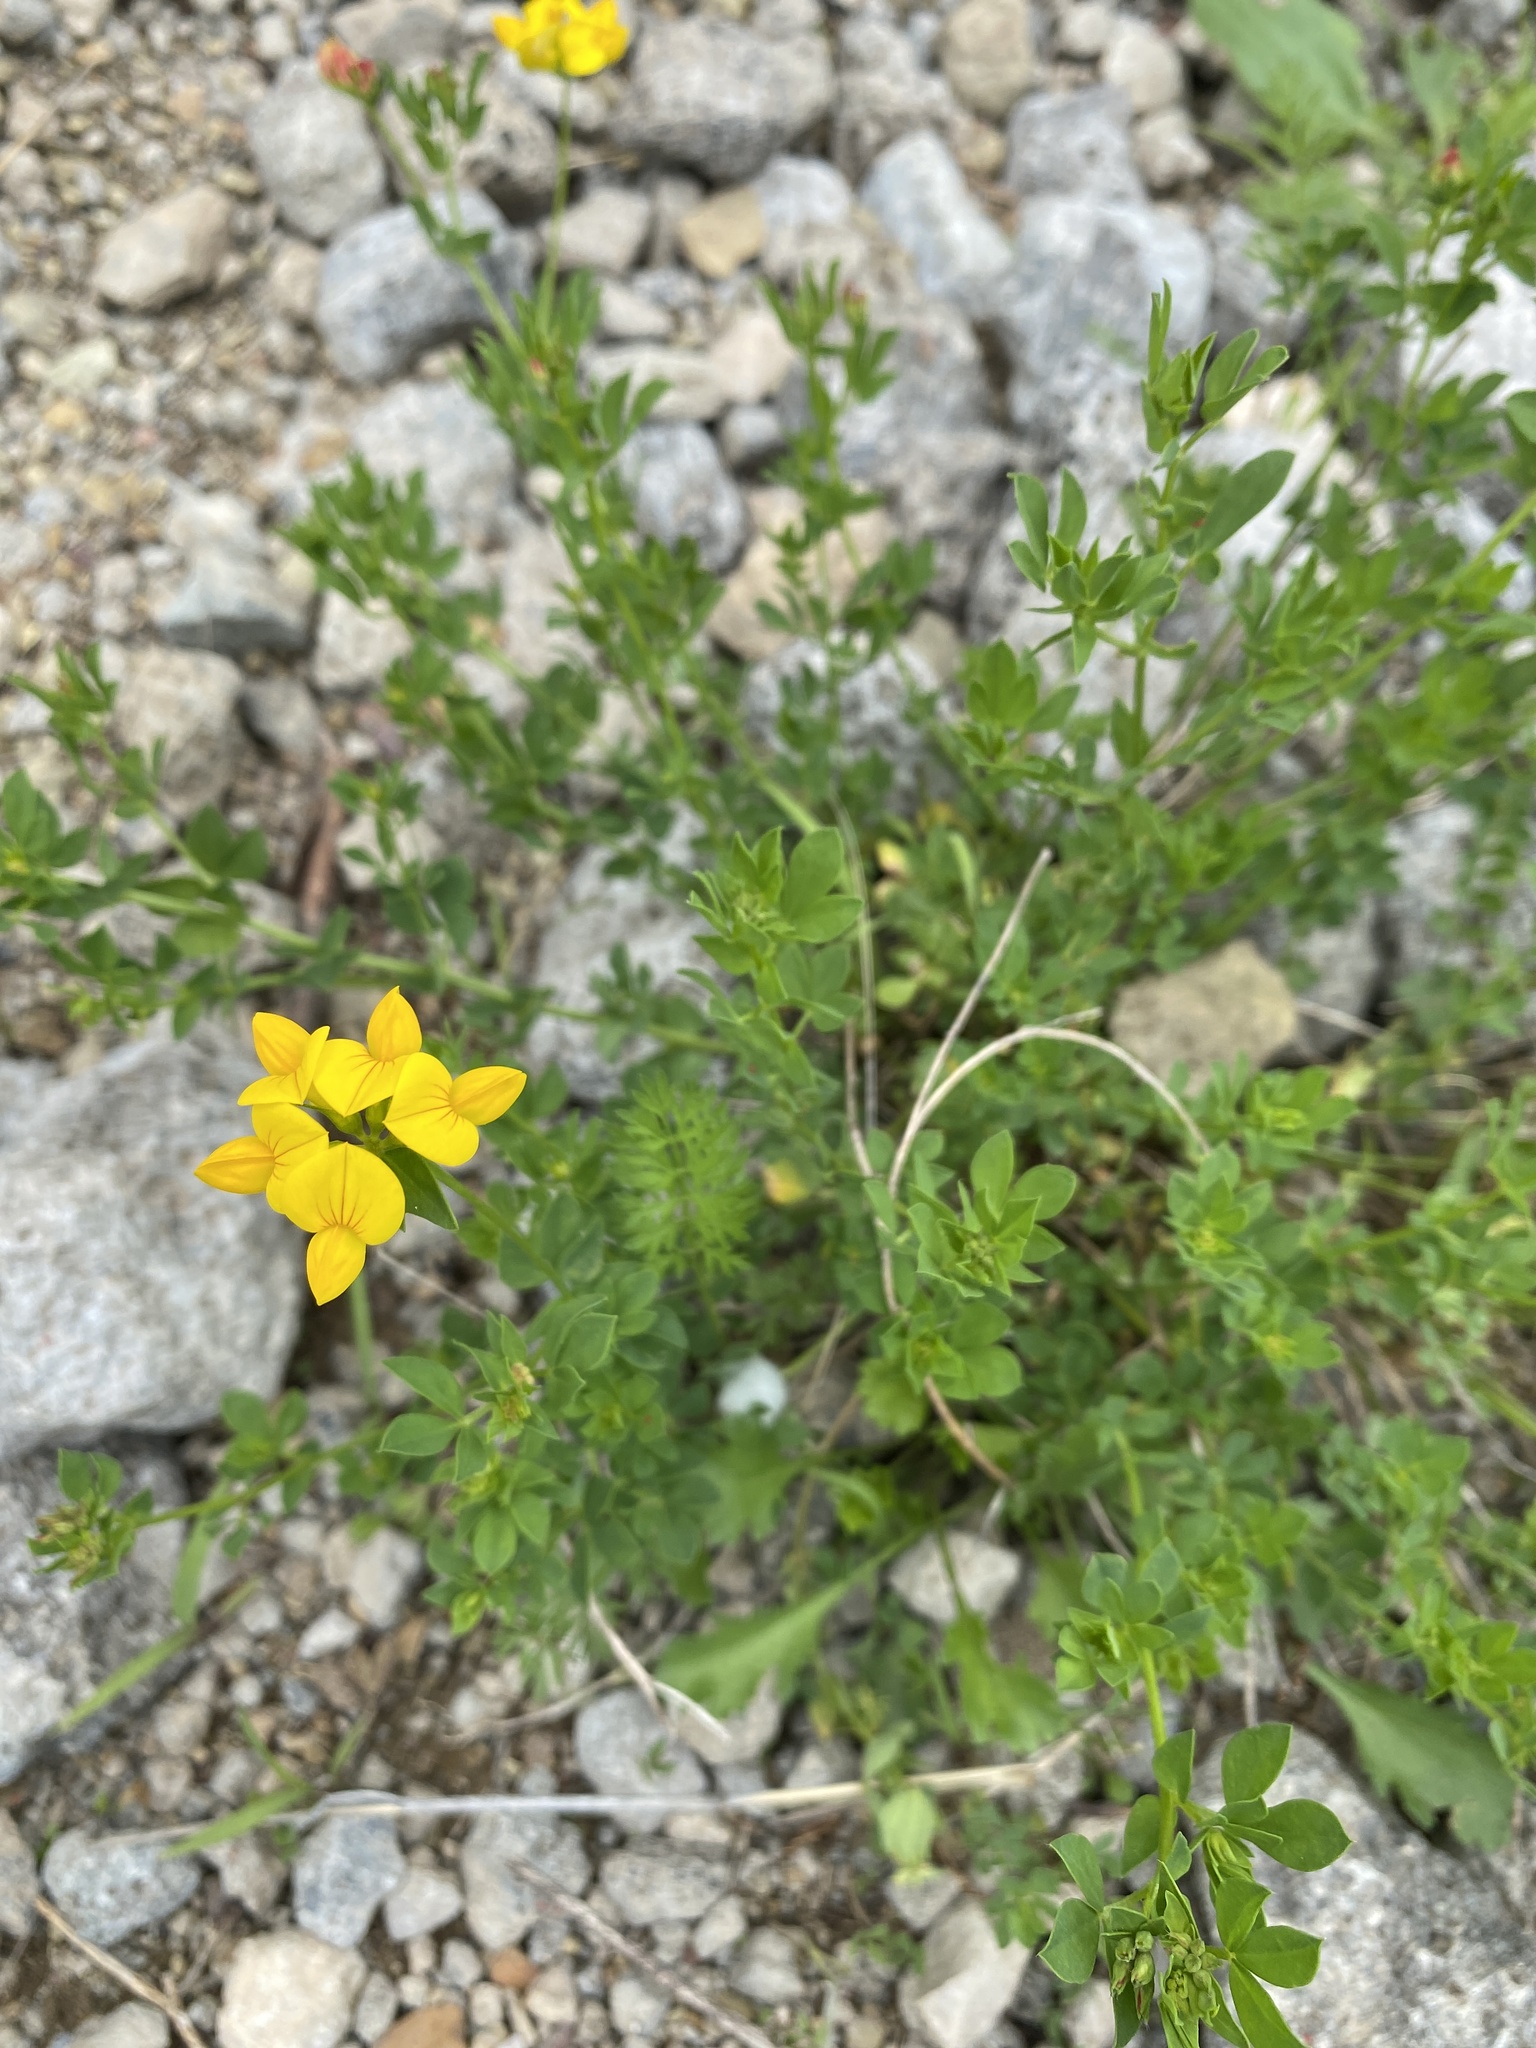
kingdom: Plantae
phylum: Tracheophyta
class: Magnoliopsida
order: Fabales
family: Fabaceae
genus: Lotus
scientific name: Lotus corniculatus
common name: Common bird's-foot-trefoil
